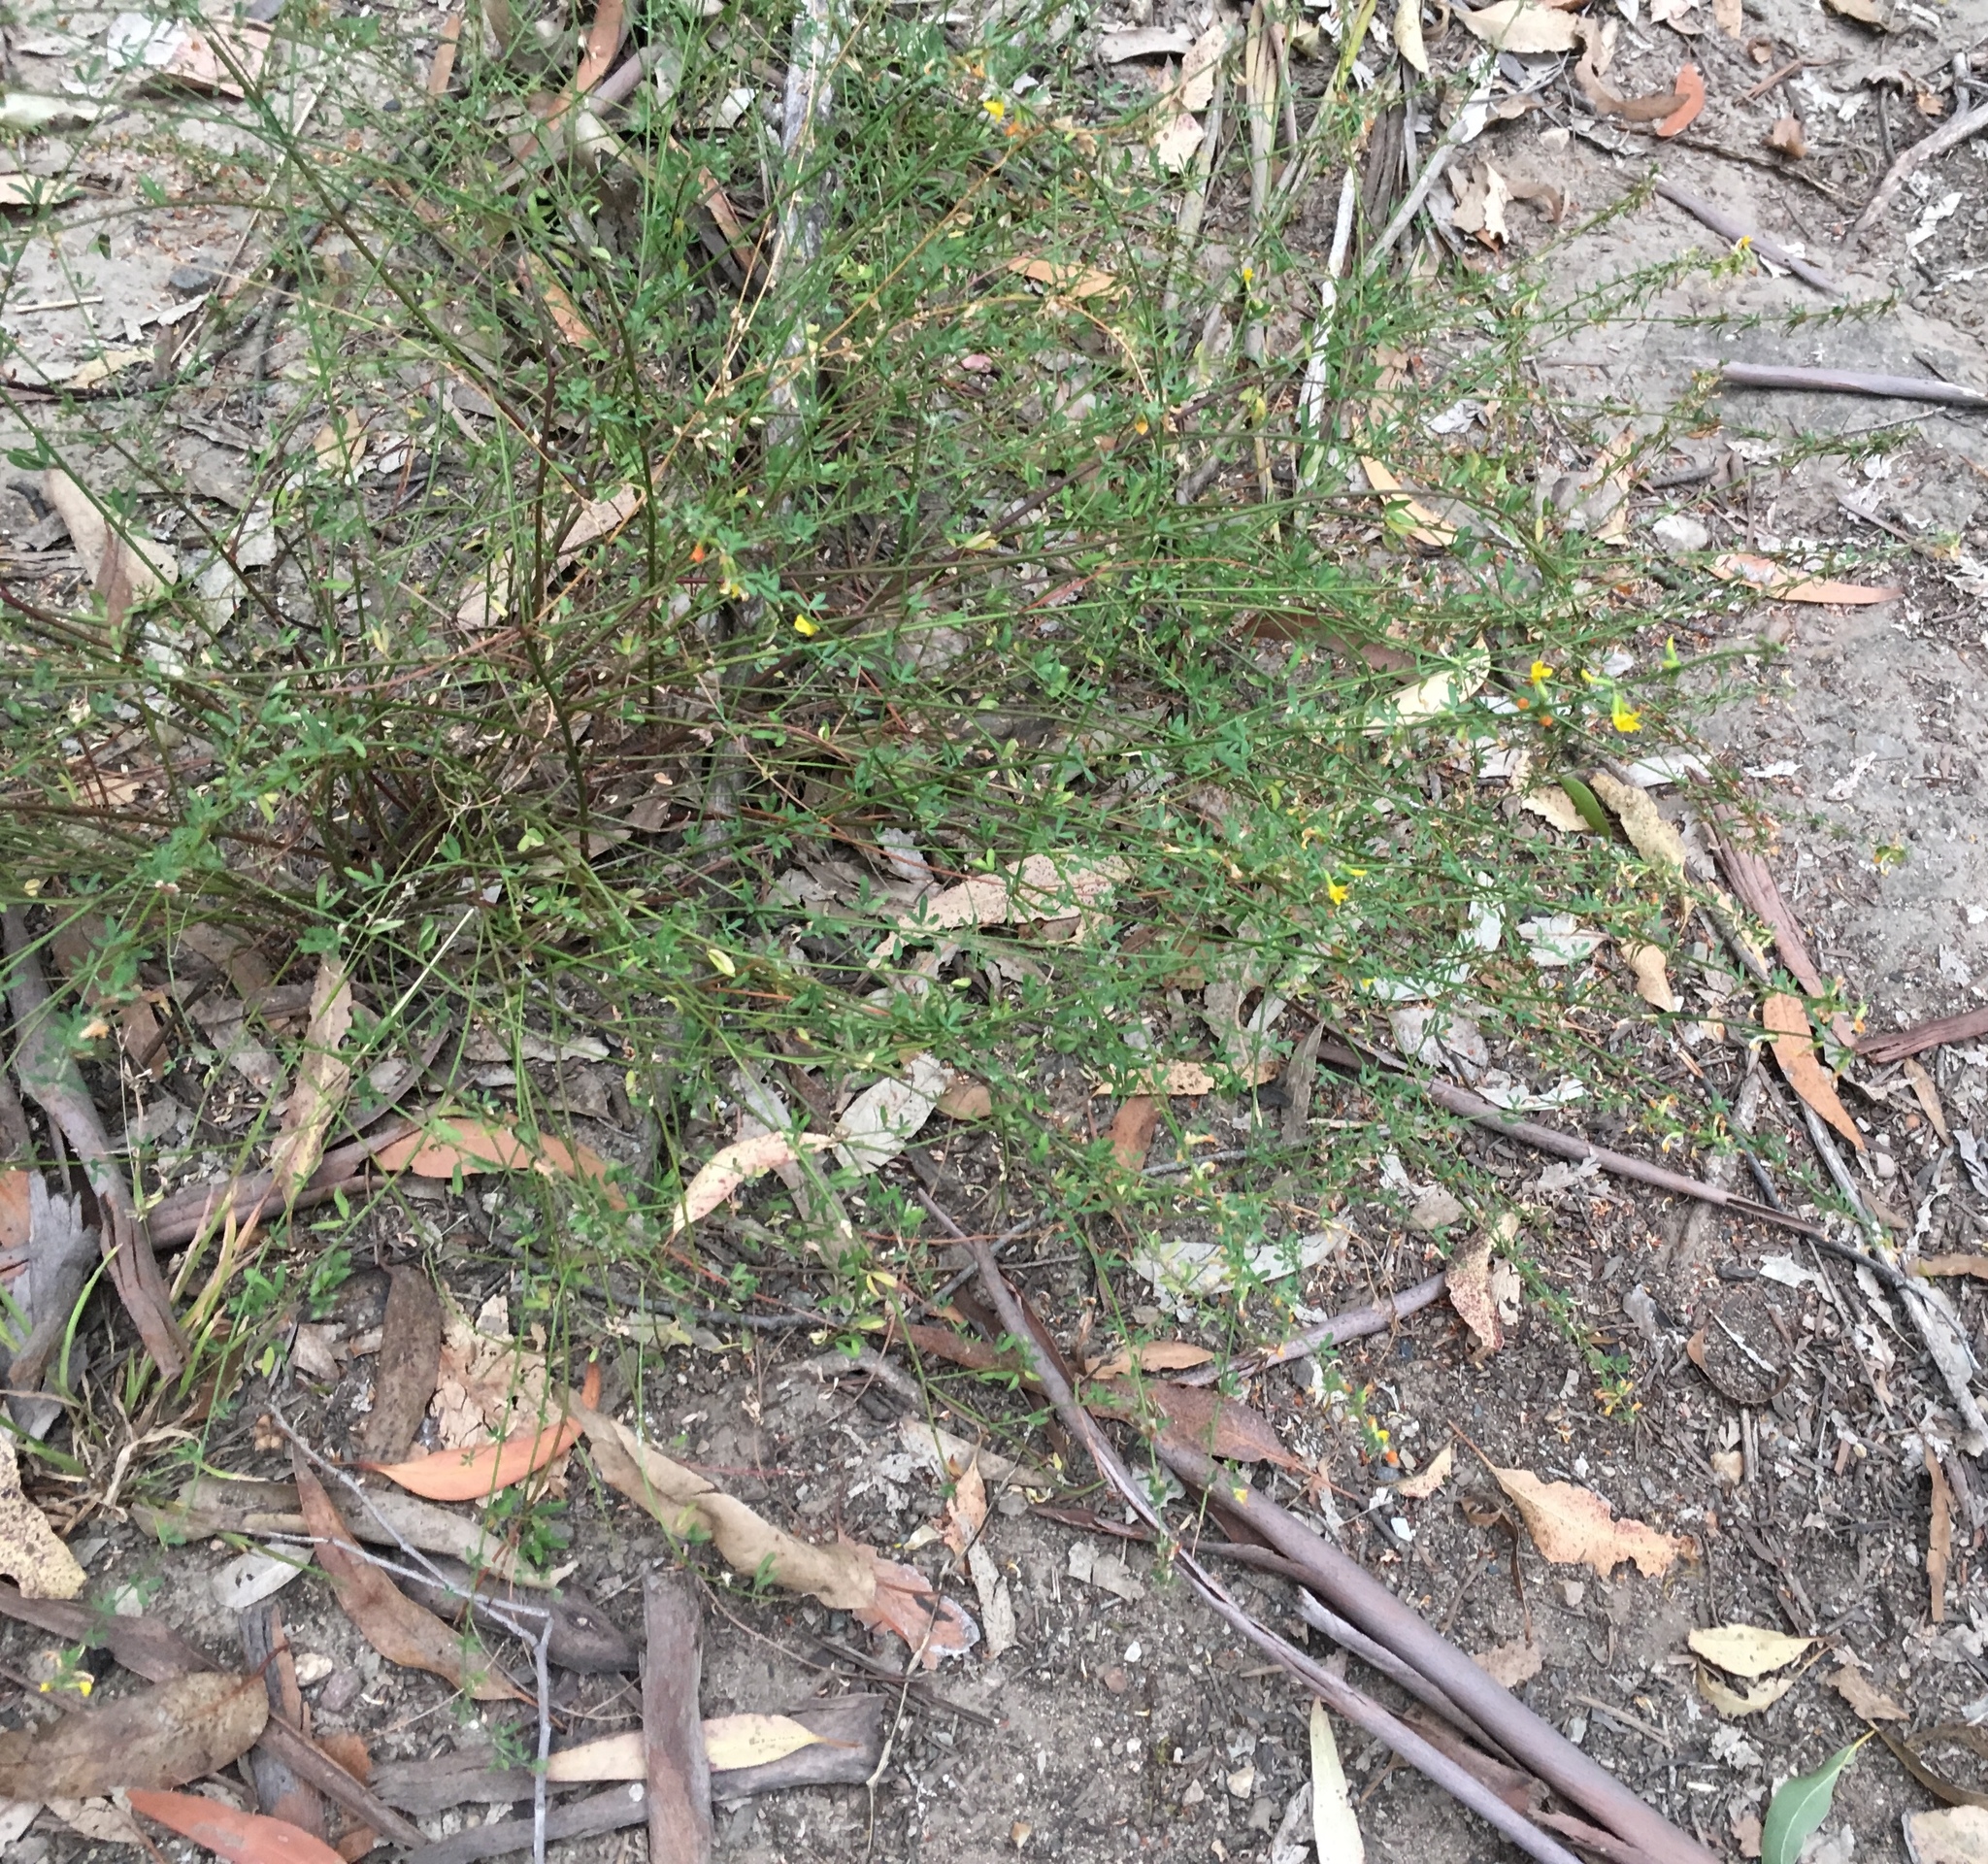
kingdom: Plantae
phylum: Tracheophyta
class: Magnoliopsida
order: Fabales
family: Fabaceae
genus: Acmispon
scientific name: Acmispon glaber
